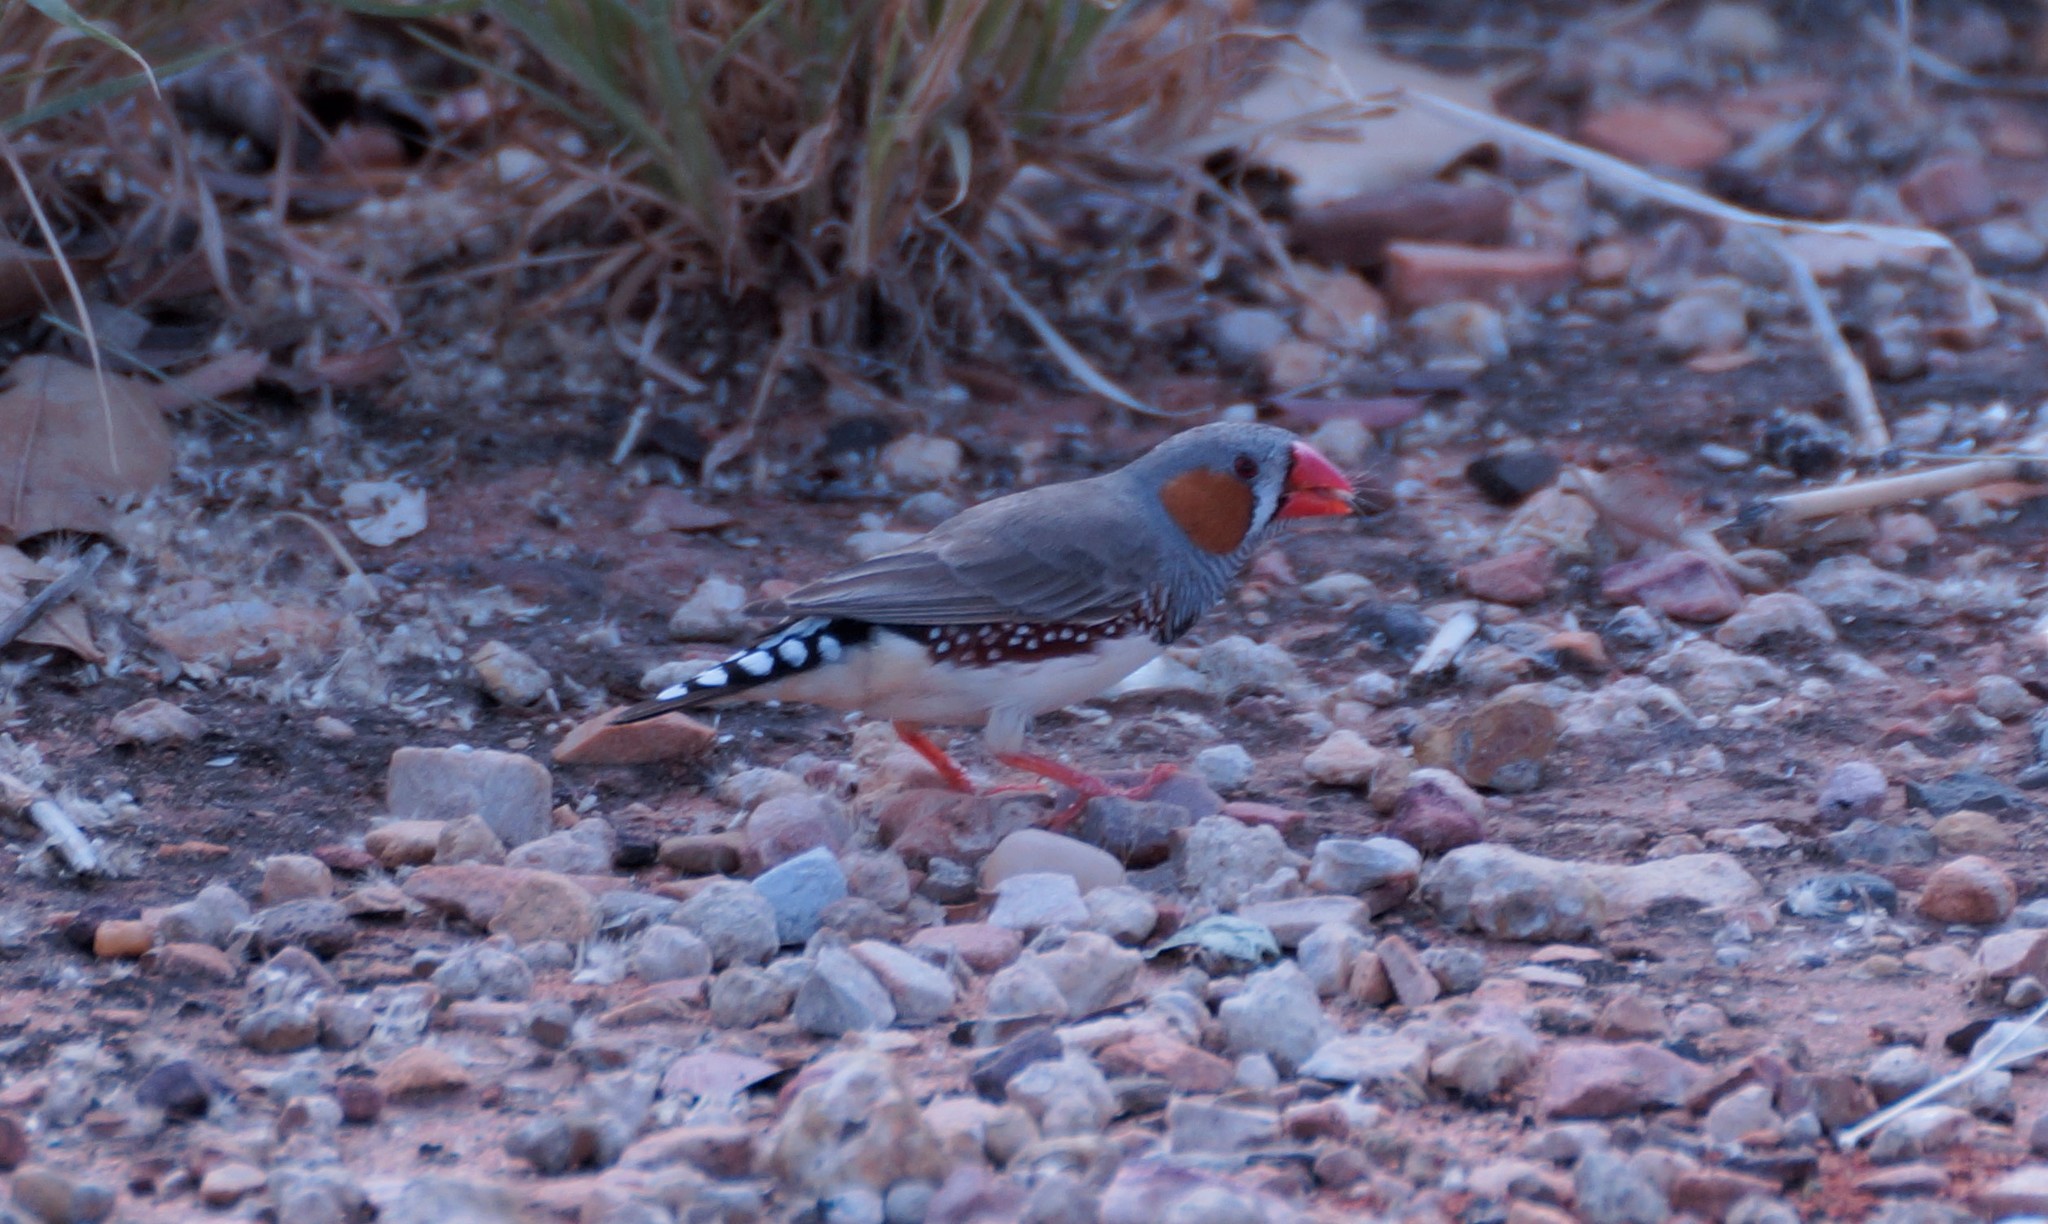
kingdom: Animalia
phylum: Chordata
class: Aves
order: Passeriformes
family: Estrildidae
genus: Taeniopygia
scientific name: Taeniopygia guttata
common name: Zebra finch
